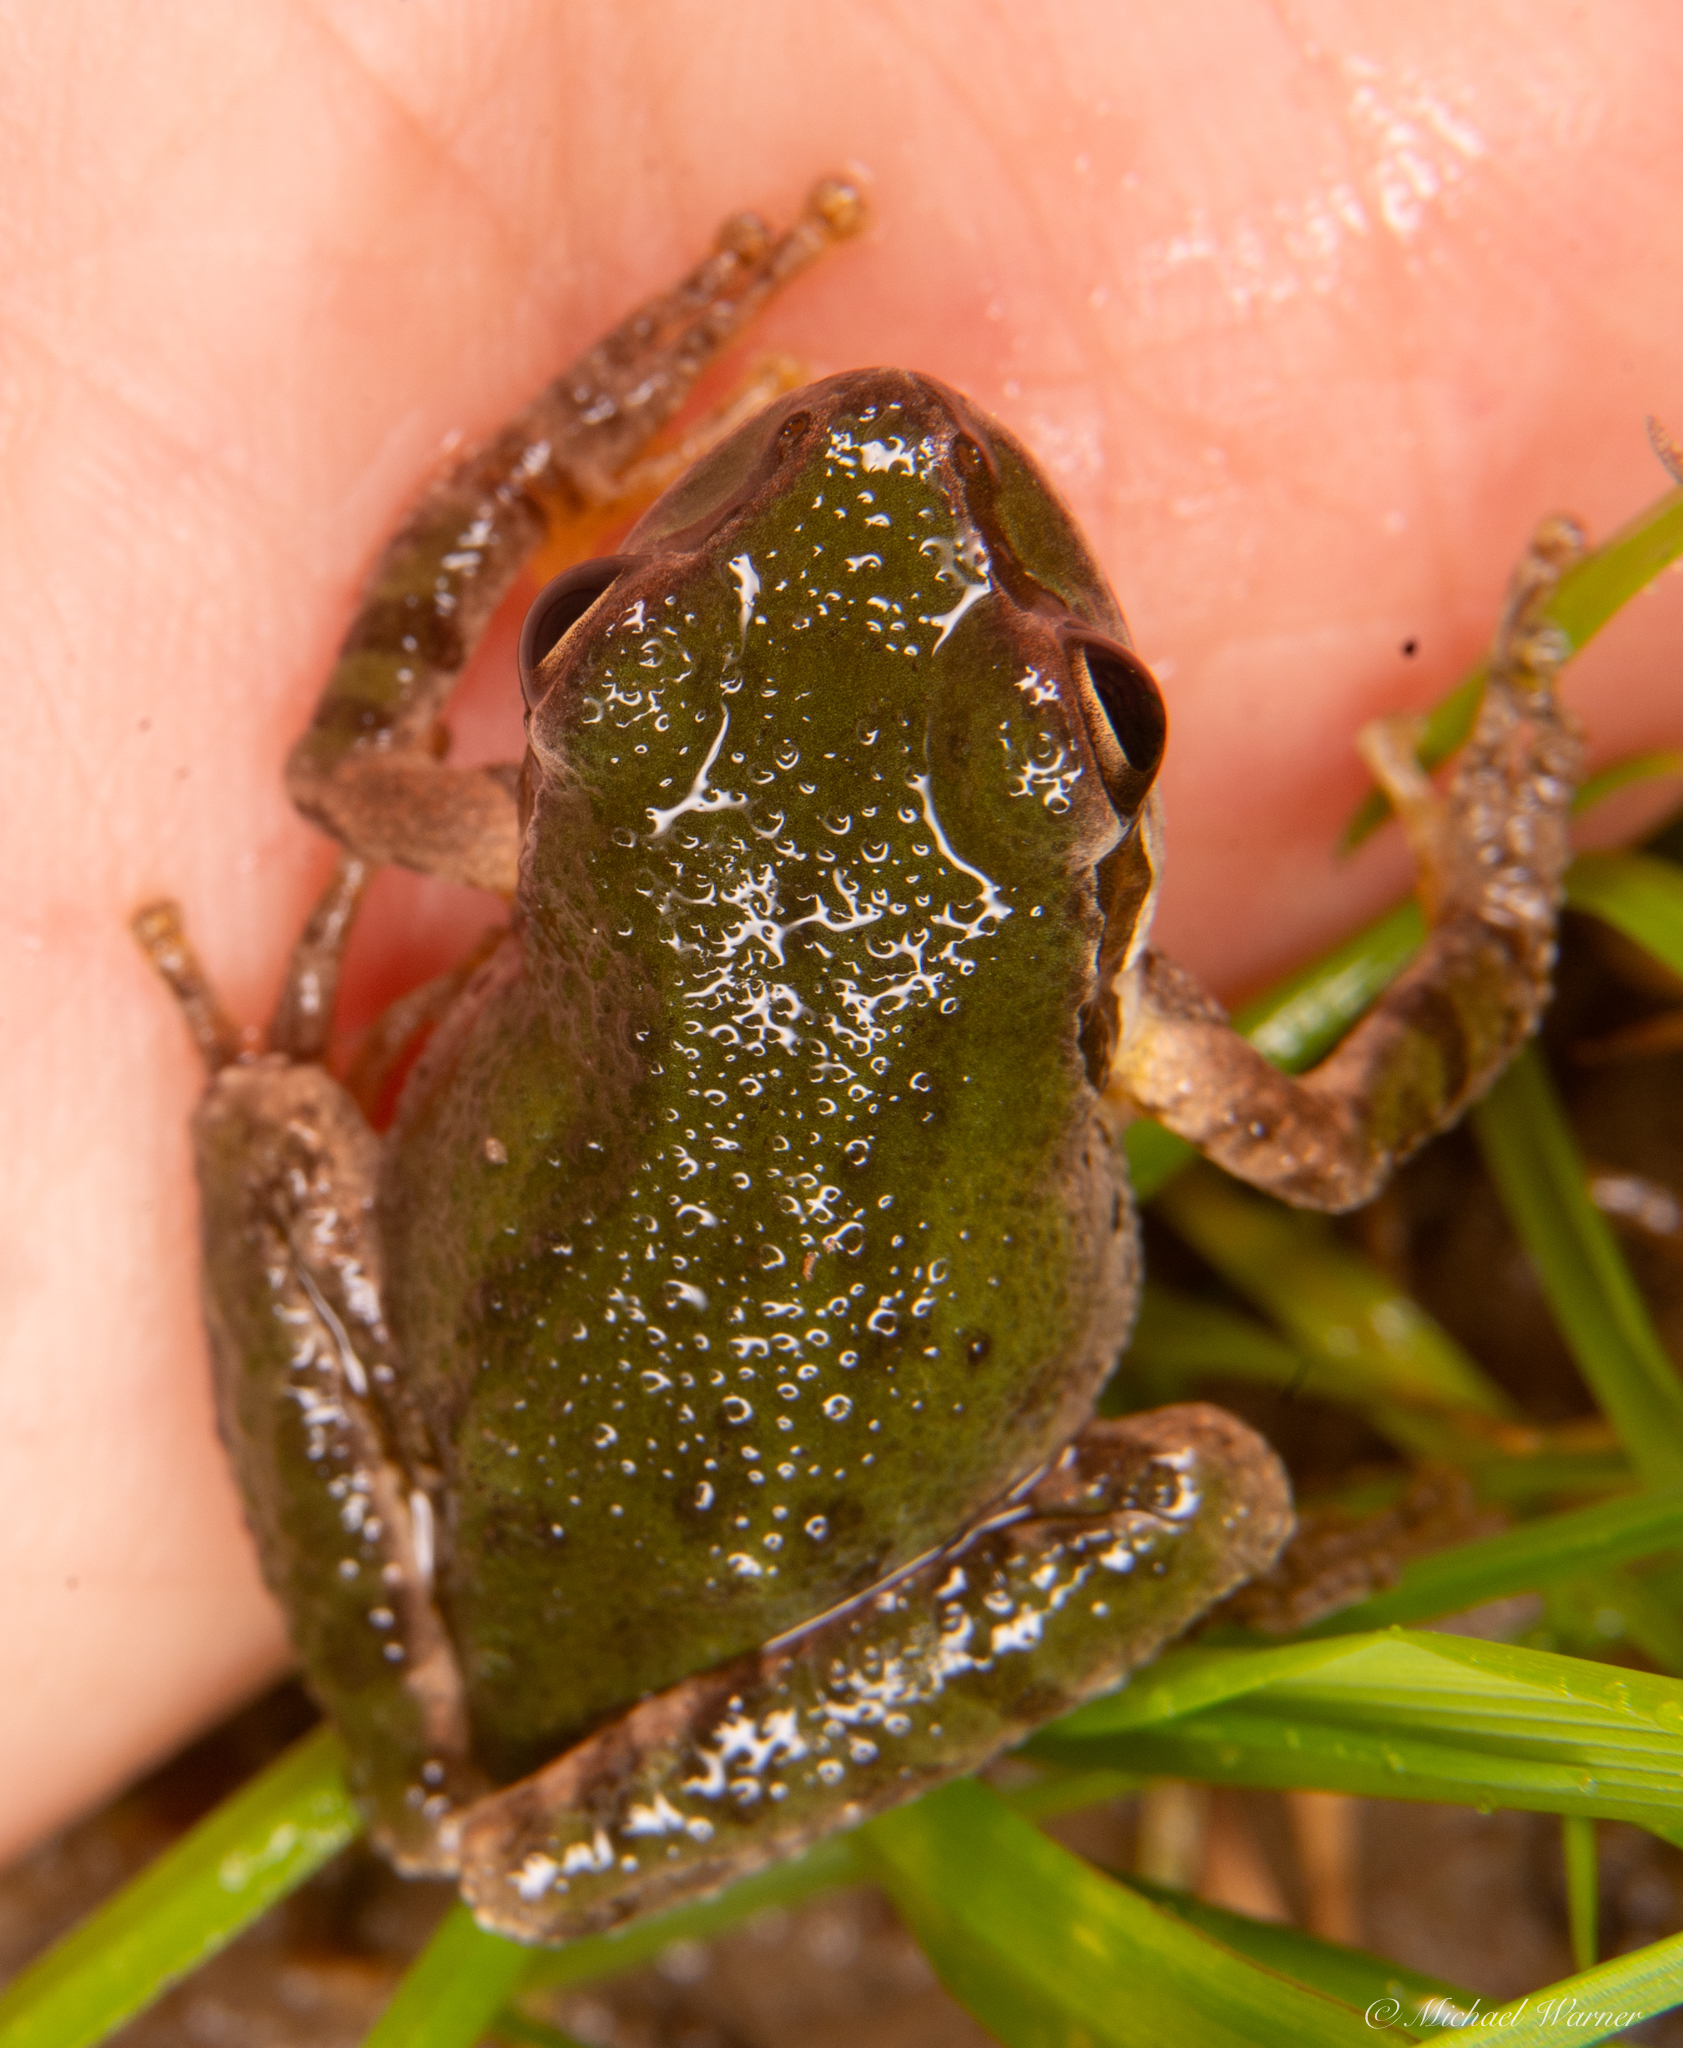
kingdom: Animalia
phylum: Chordata
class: Amphibia
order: Anura
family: Hylidae
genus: Pseudacris
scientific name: Pseudacris regilla
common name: Pacific chorus frog
